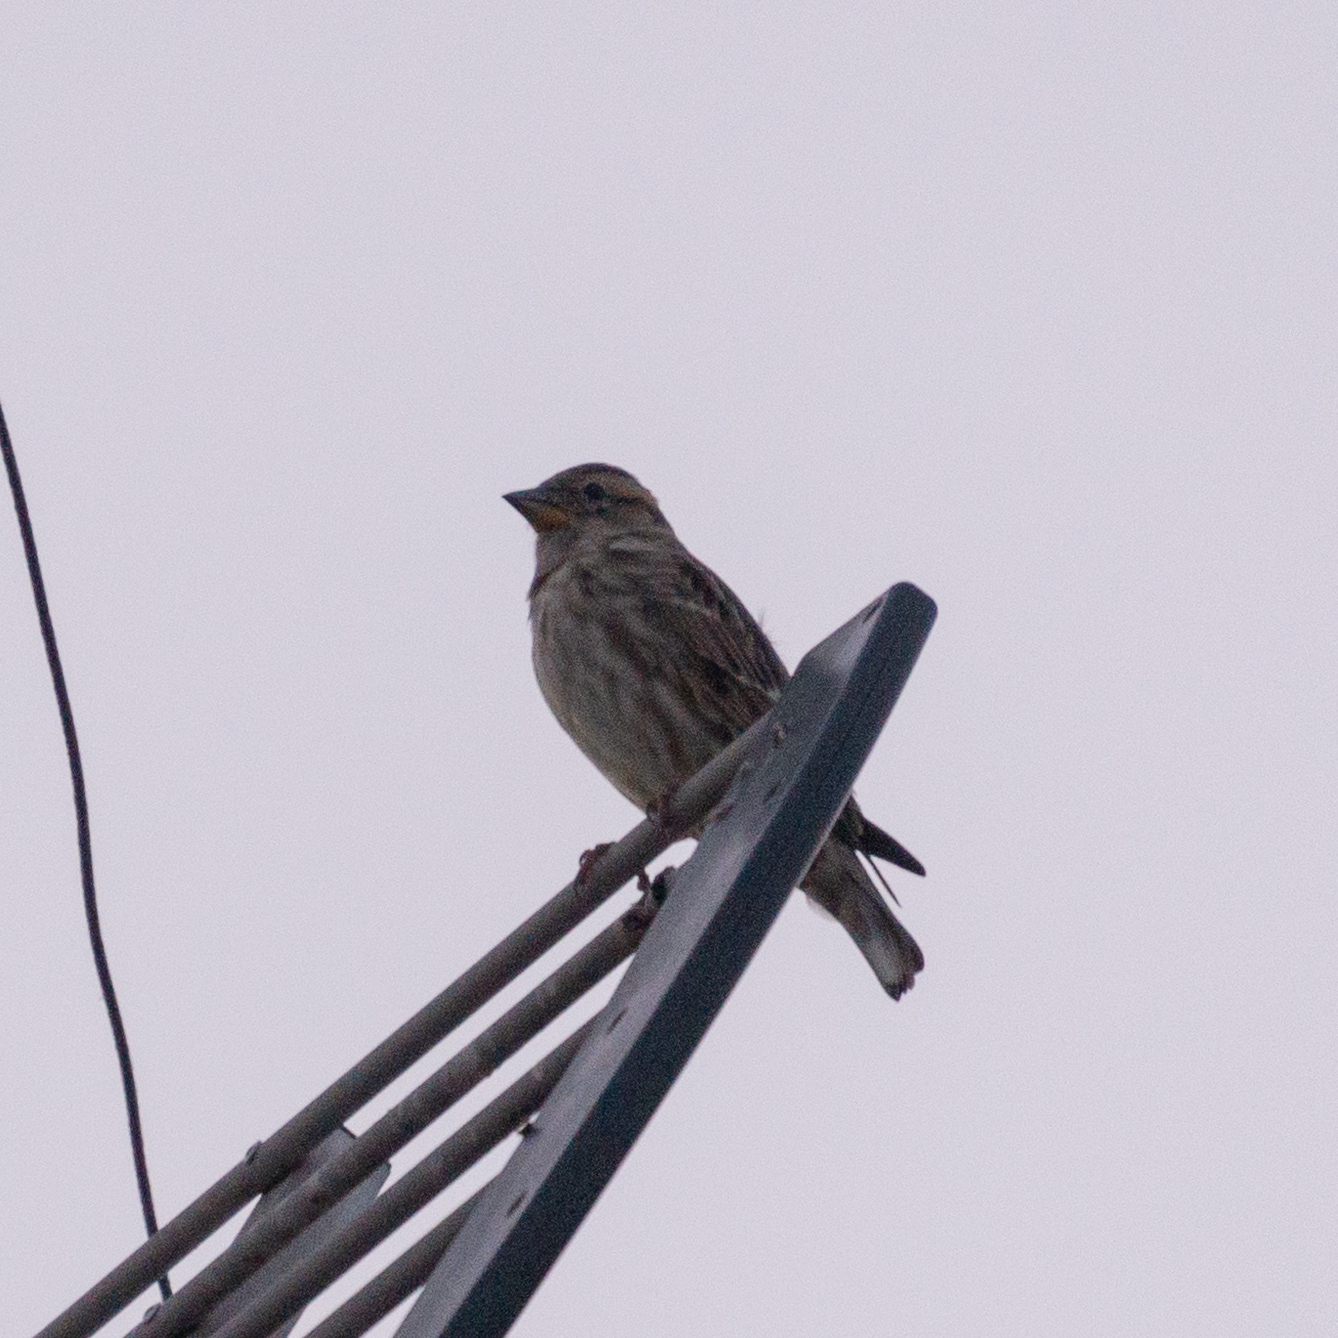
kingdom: Animalia
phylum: Chordata
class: Aves
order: Passeriformes
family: Passeridae
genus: Petronia
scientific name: Petronia petronia
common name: Rock sparrow
